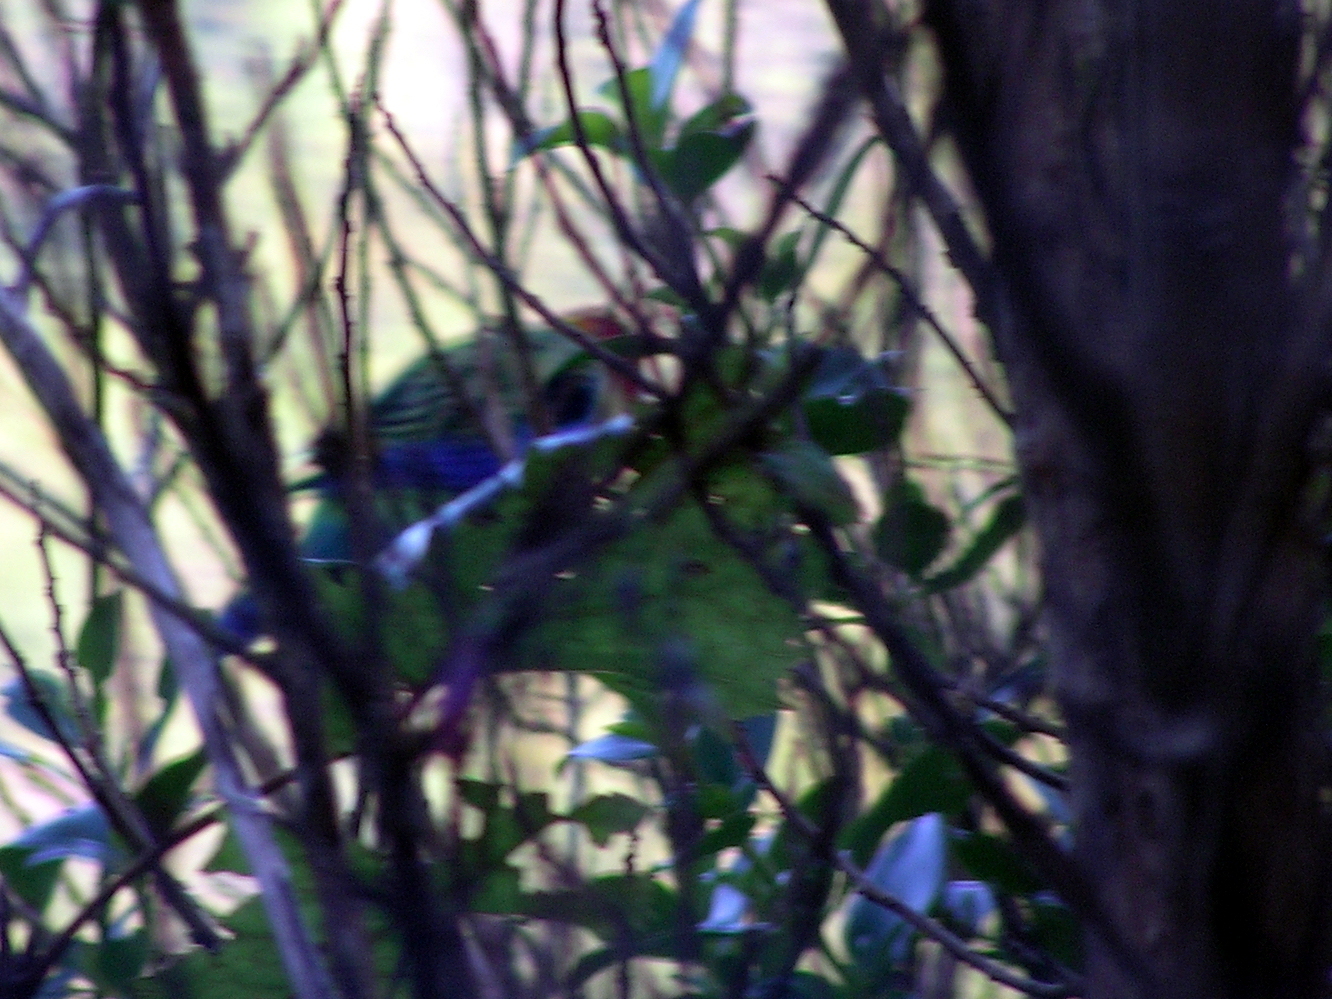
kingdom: Animalia
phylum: Chordata
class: Aves
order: Psittaciformes
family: Psittacidae
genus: Platycercus
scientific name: Platycercus eximius
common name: Eastern rosella
